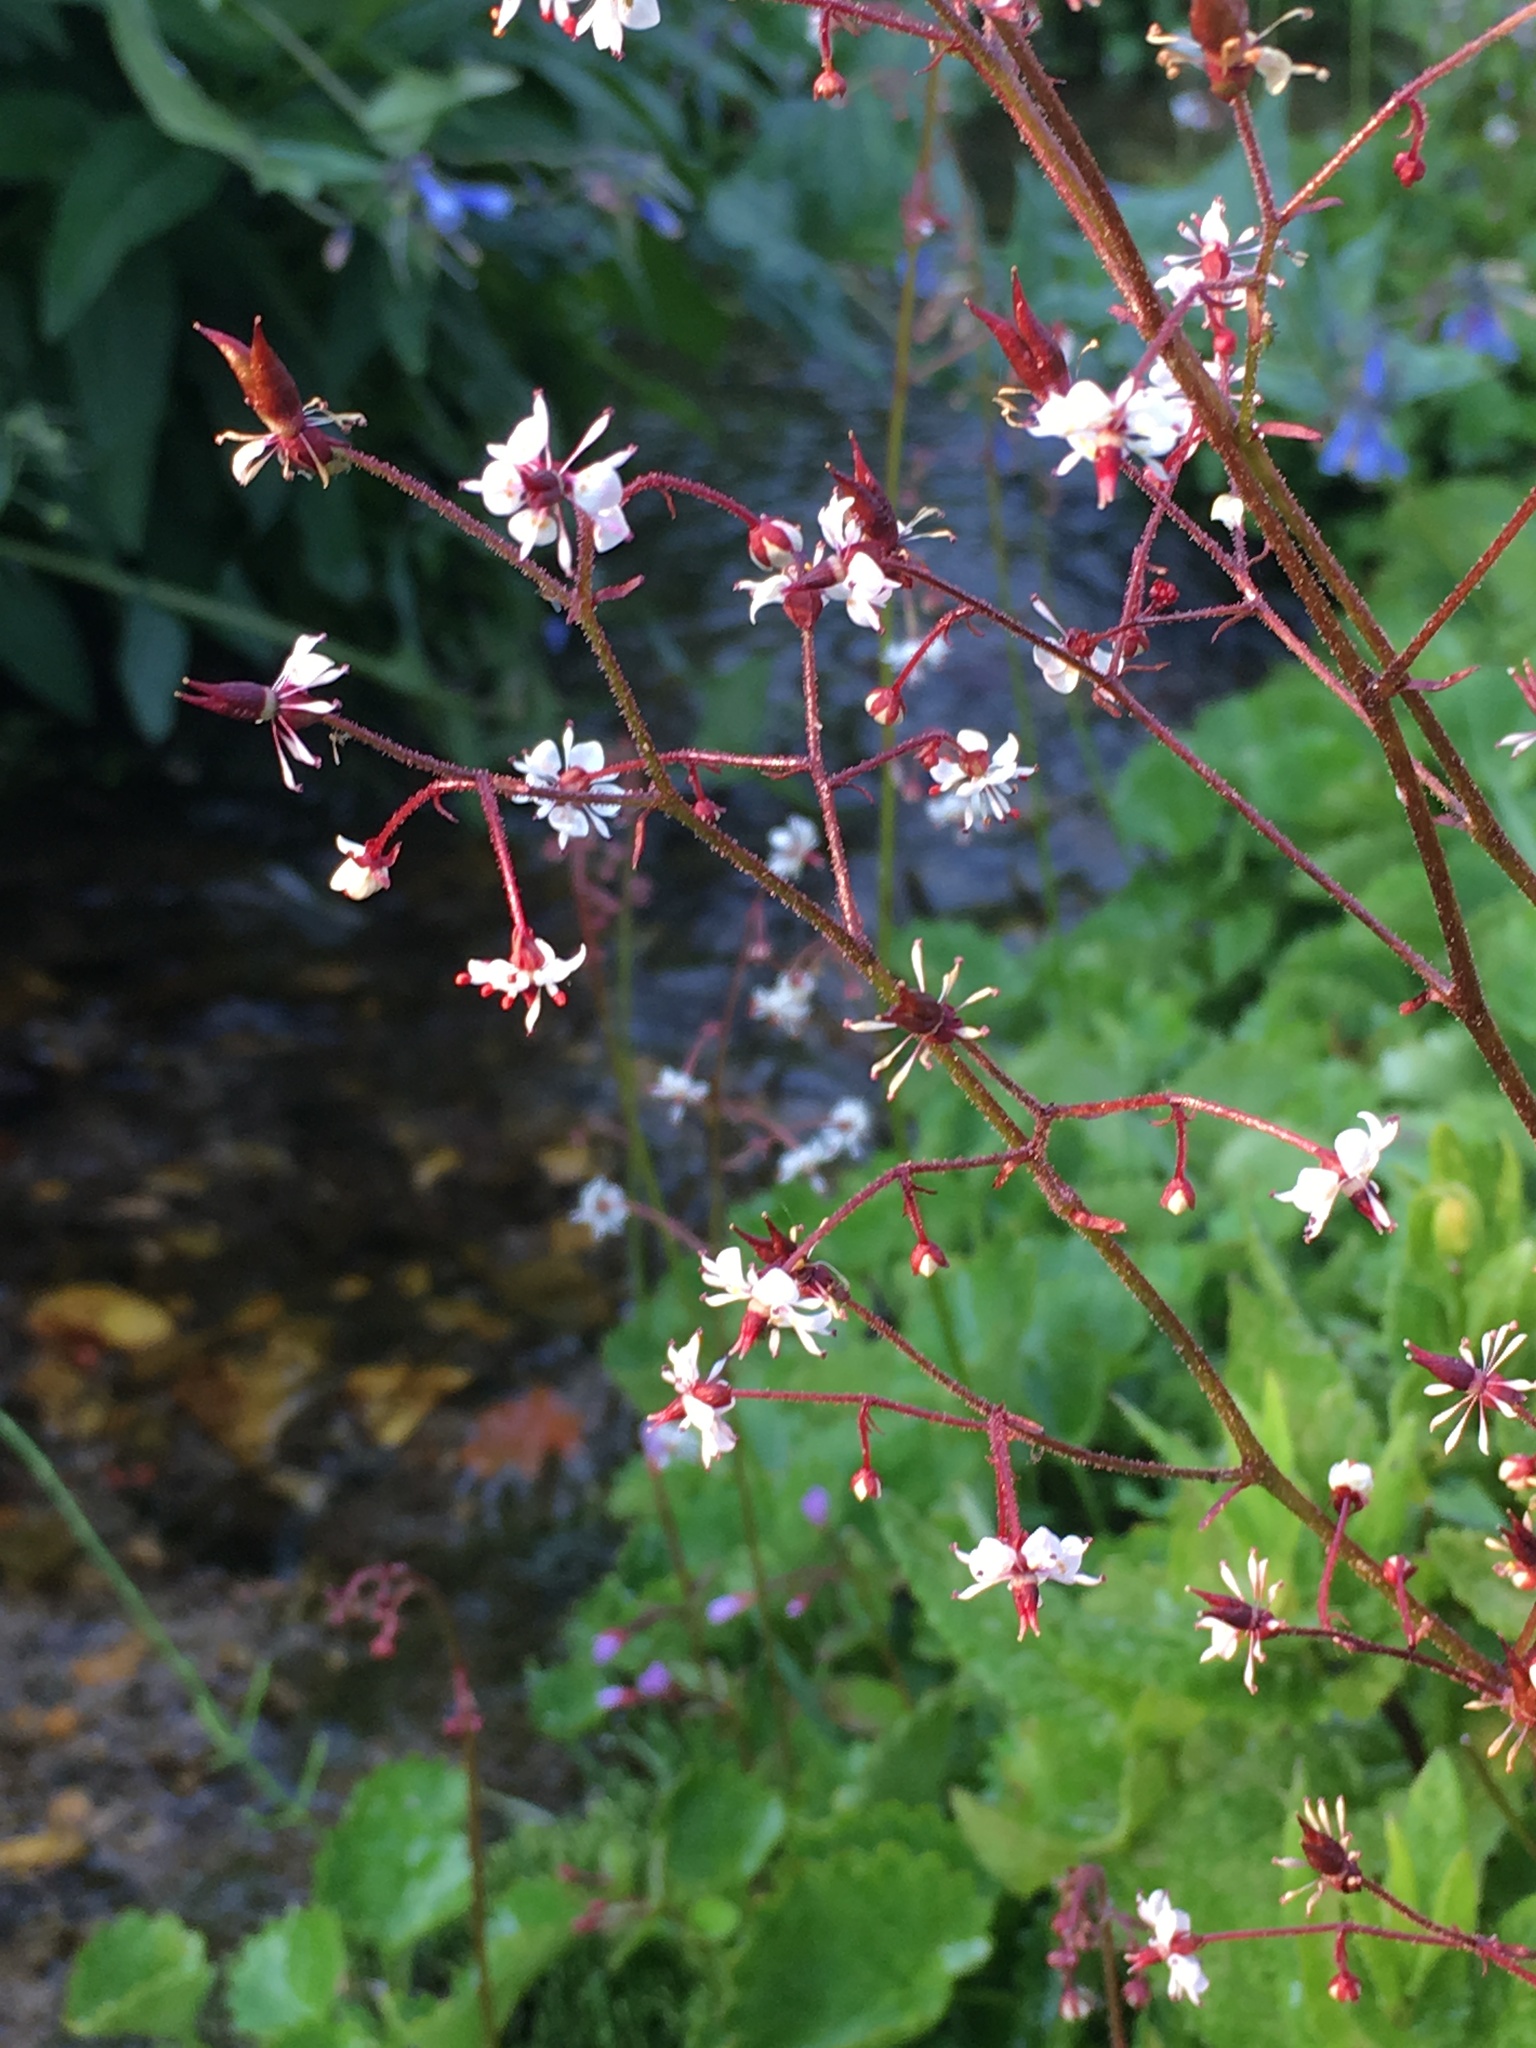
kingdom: Plantae
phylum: Tracheophyta
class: Magnoliopsida
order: Saxifragales
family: Saxifragaceae
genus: Micranthes
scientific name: Micranthes odontoloma
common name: Brook saxifrage
